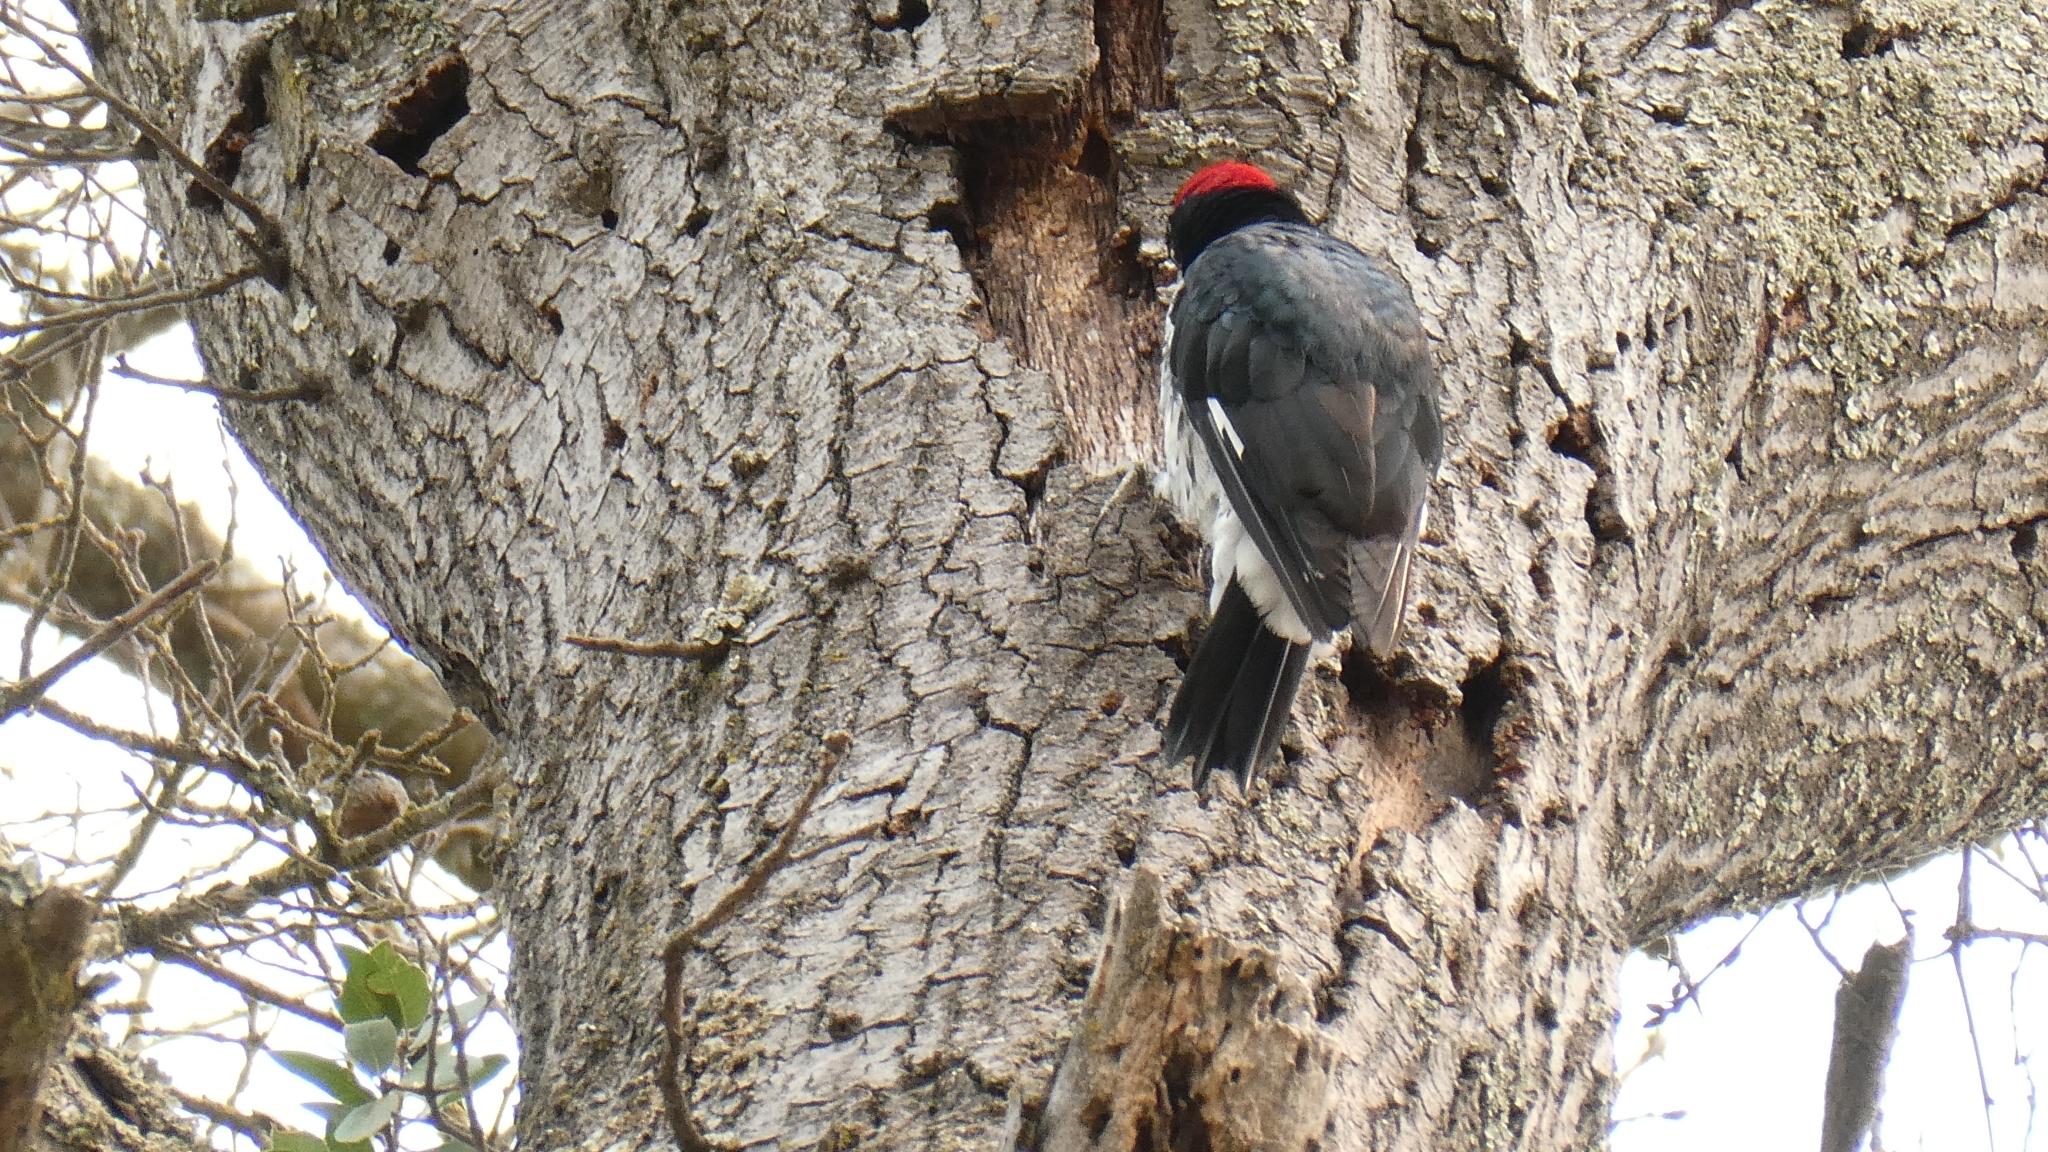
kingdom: Animalia
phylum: Chordata
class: Aves
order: Piciformes
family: Picidae
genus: Melanerpes
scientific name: Melanerpes formicivorus
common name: Acorn woodpecker
